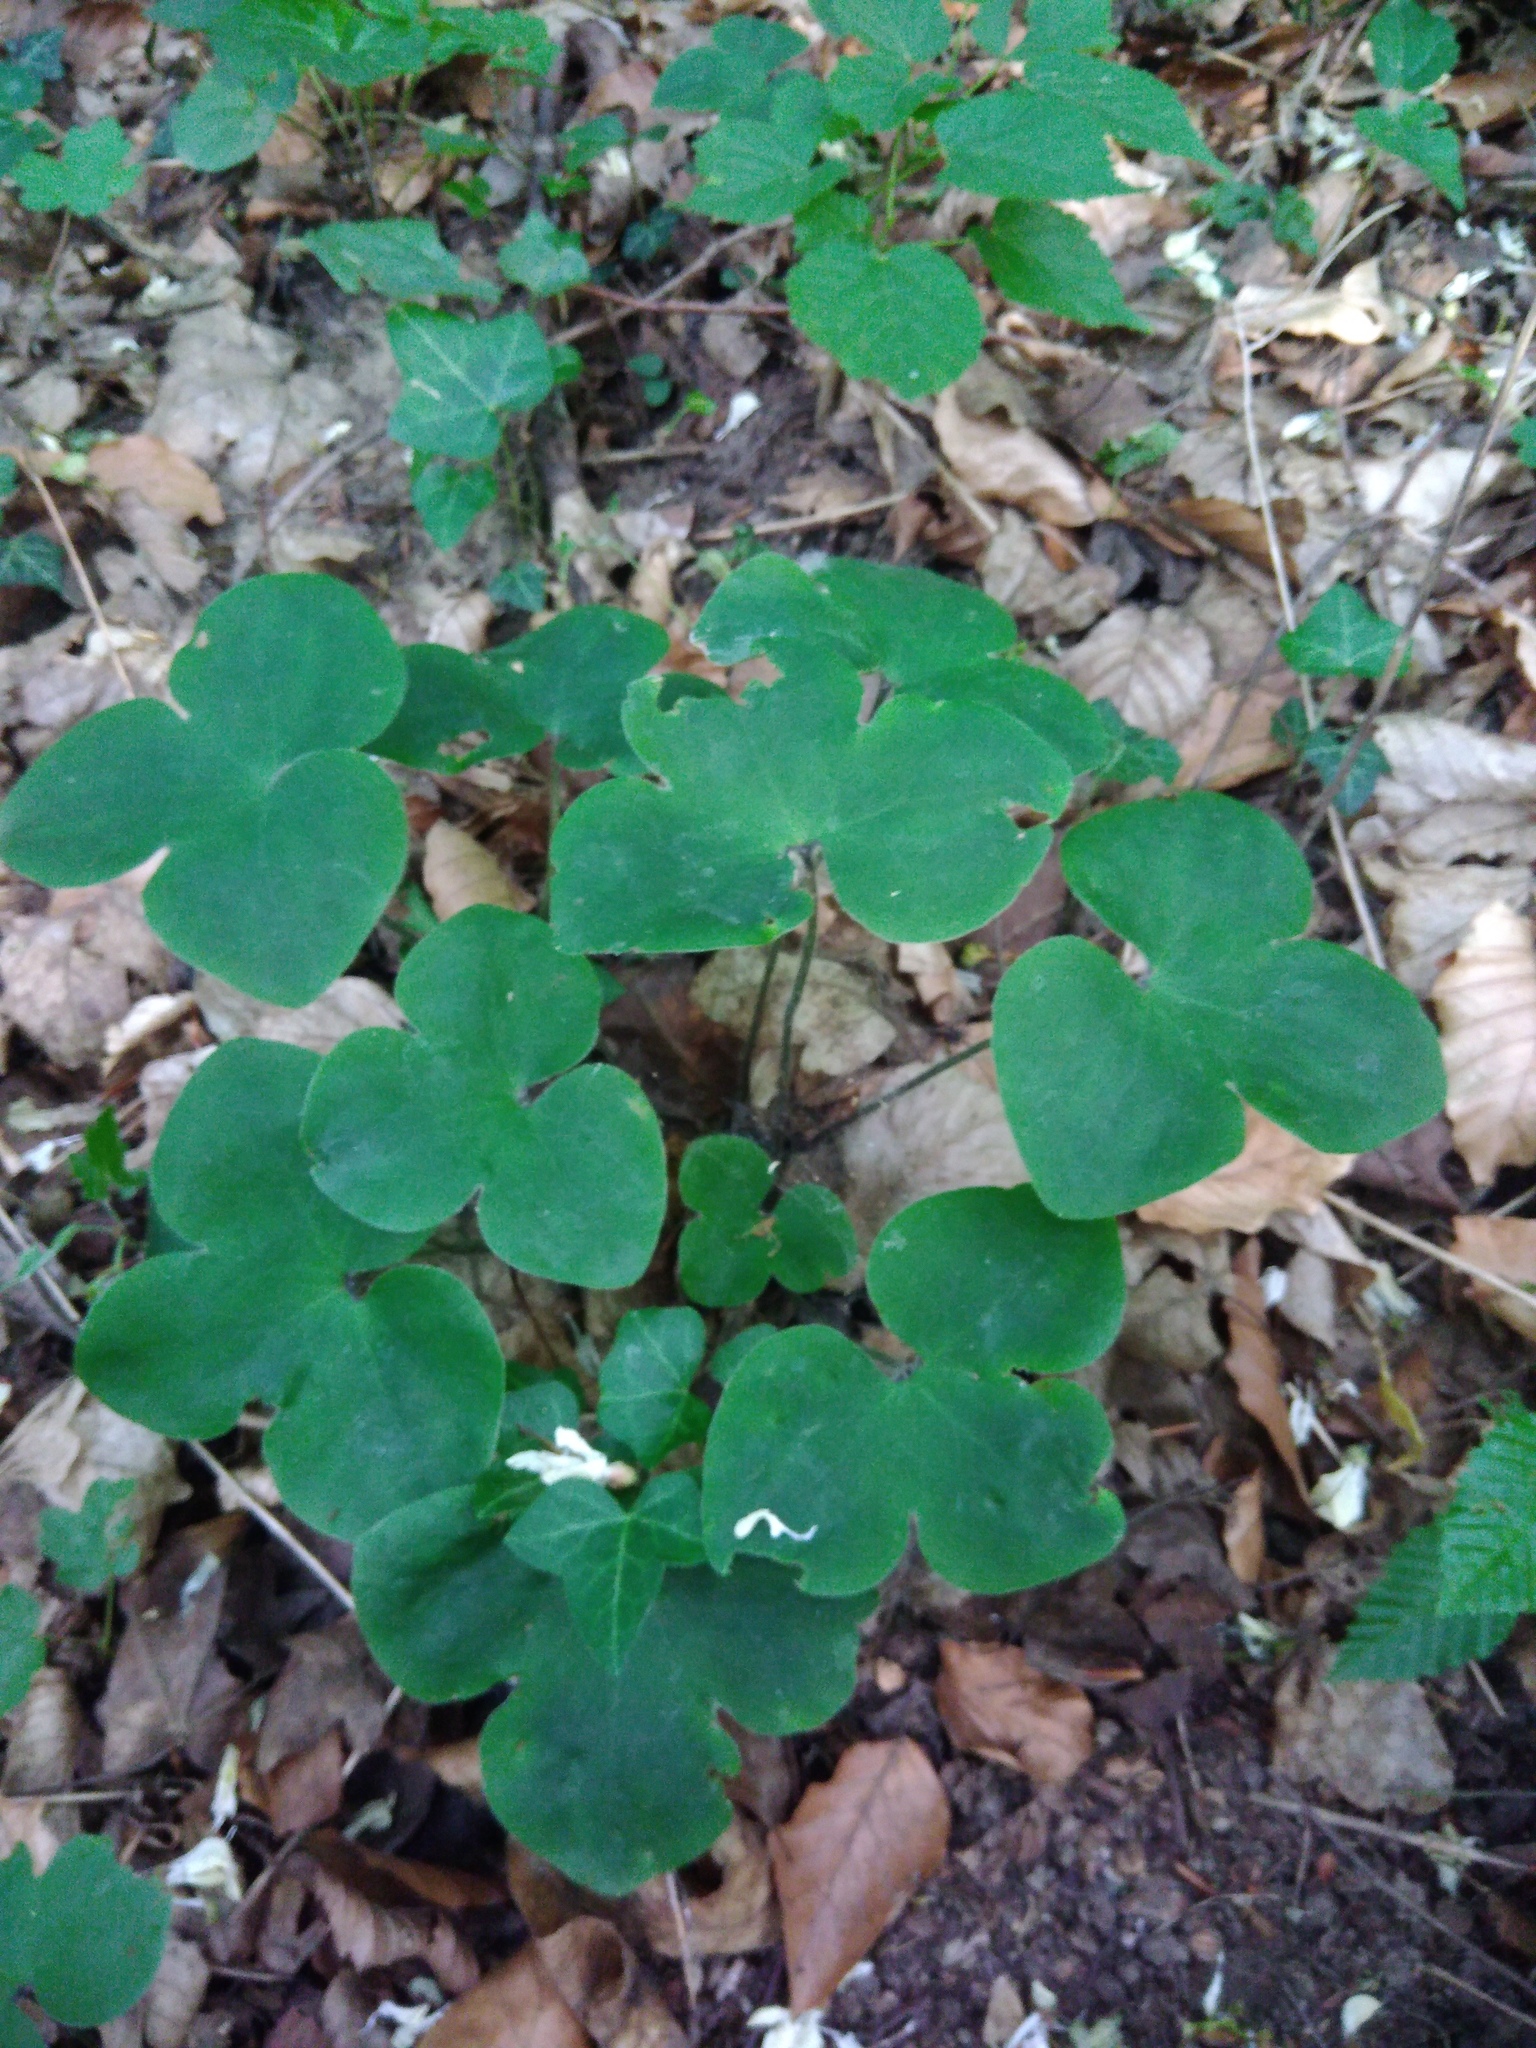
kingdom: Plantae
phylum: Tracheophyta
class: Magnoliopsida
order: Ranunculales
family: Ranunculaceae
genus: Hepatica
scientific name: Hepatica nobilis
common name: Liverleaf
